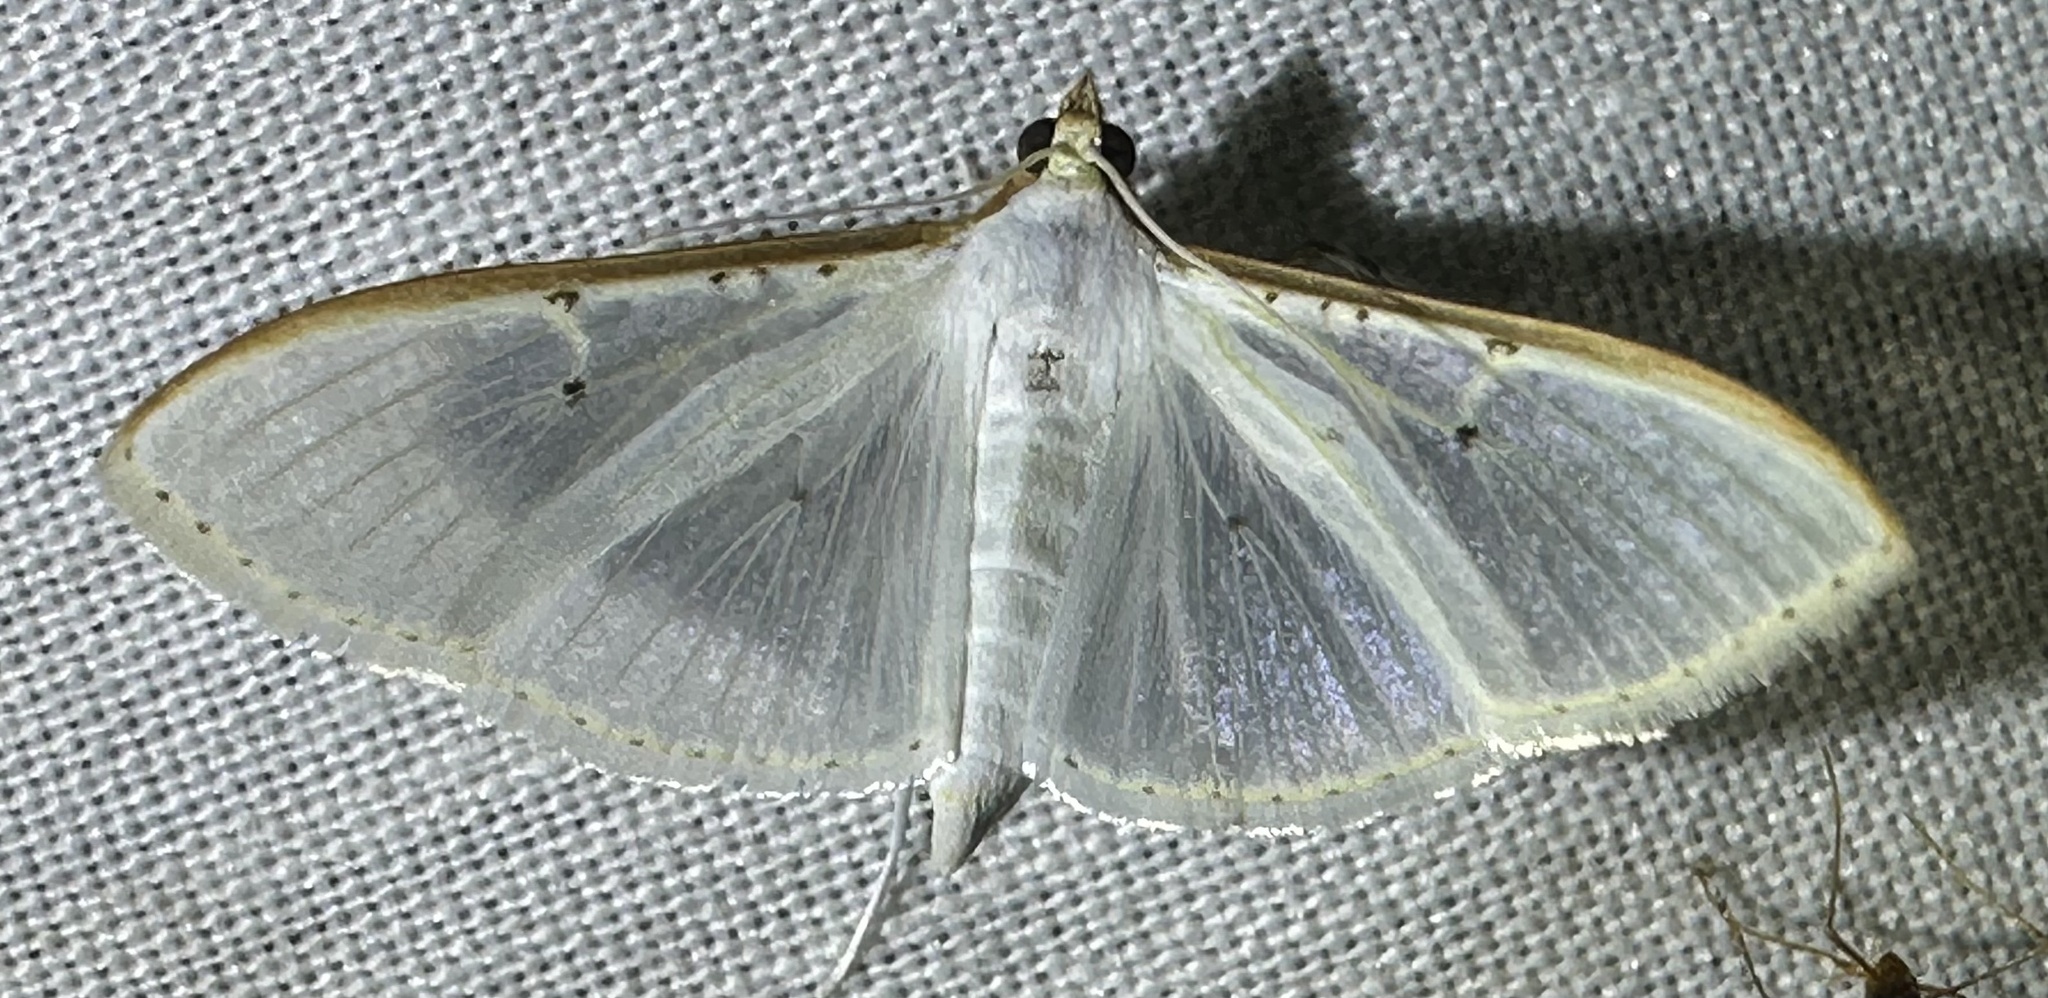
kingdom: Animalia
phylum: Arthropoda
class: Insecta
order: Lepidoptera
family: Crambidae
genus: Palpita
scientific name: Palpita vitrealis
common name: Olive-tree pearl
